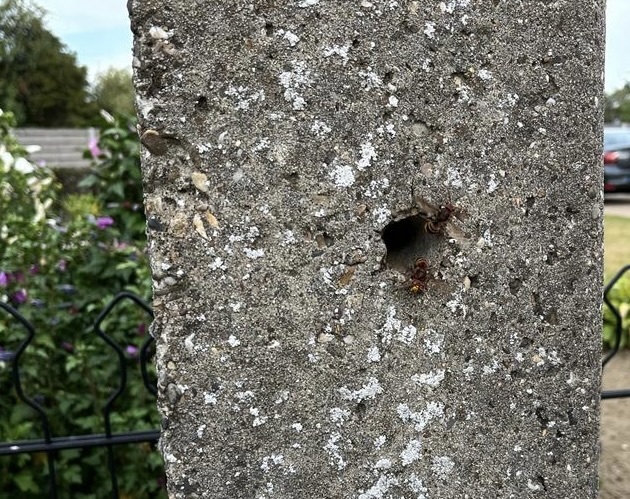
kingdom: Animalia
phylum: Arthropoda
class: Insecta
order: Hymenoptera
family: Vespidae
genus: Vespa
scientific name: Vespa crabro
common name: Hornet
